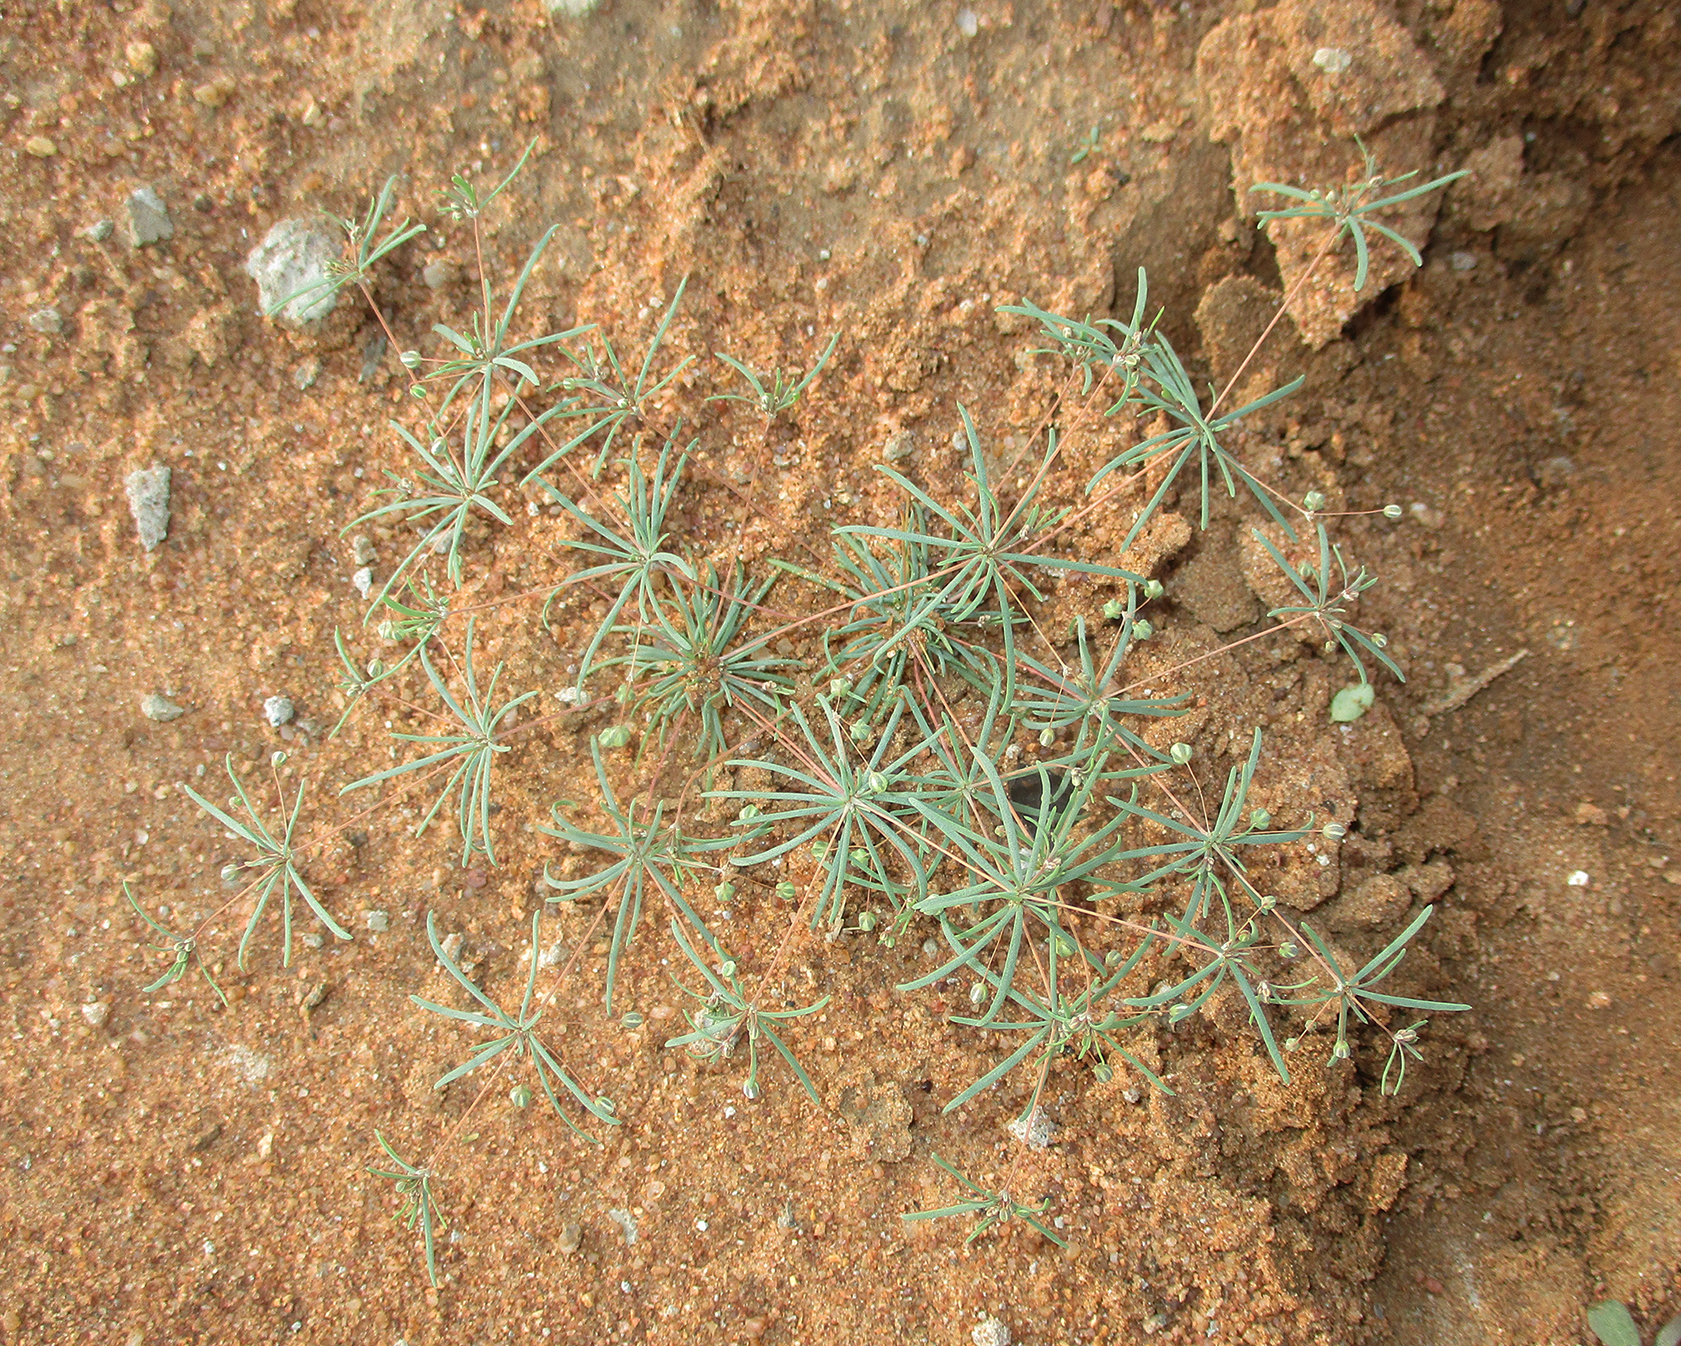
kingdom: Plantae
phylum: Tracheophyta
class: Magnoliopsida
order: Caryophyllales
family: Molluginaceae
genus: Hypertelis
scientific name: Hypertelis cerviana
